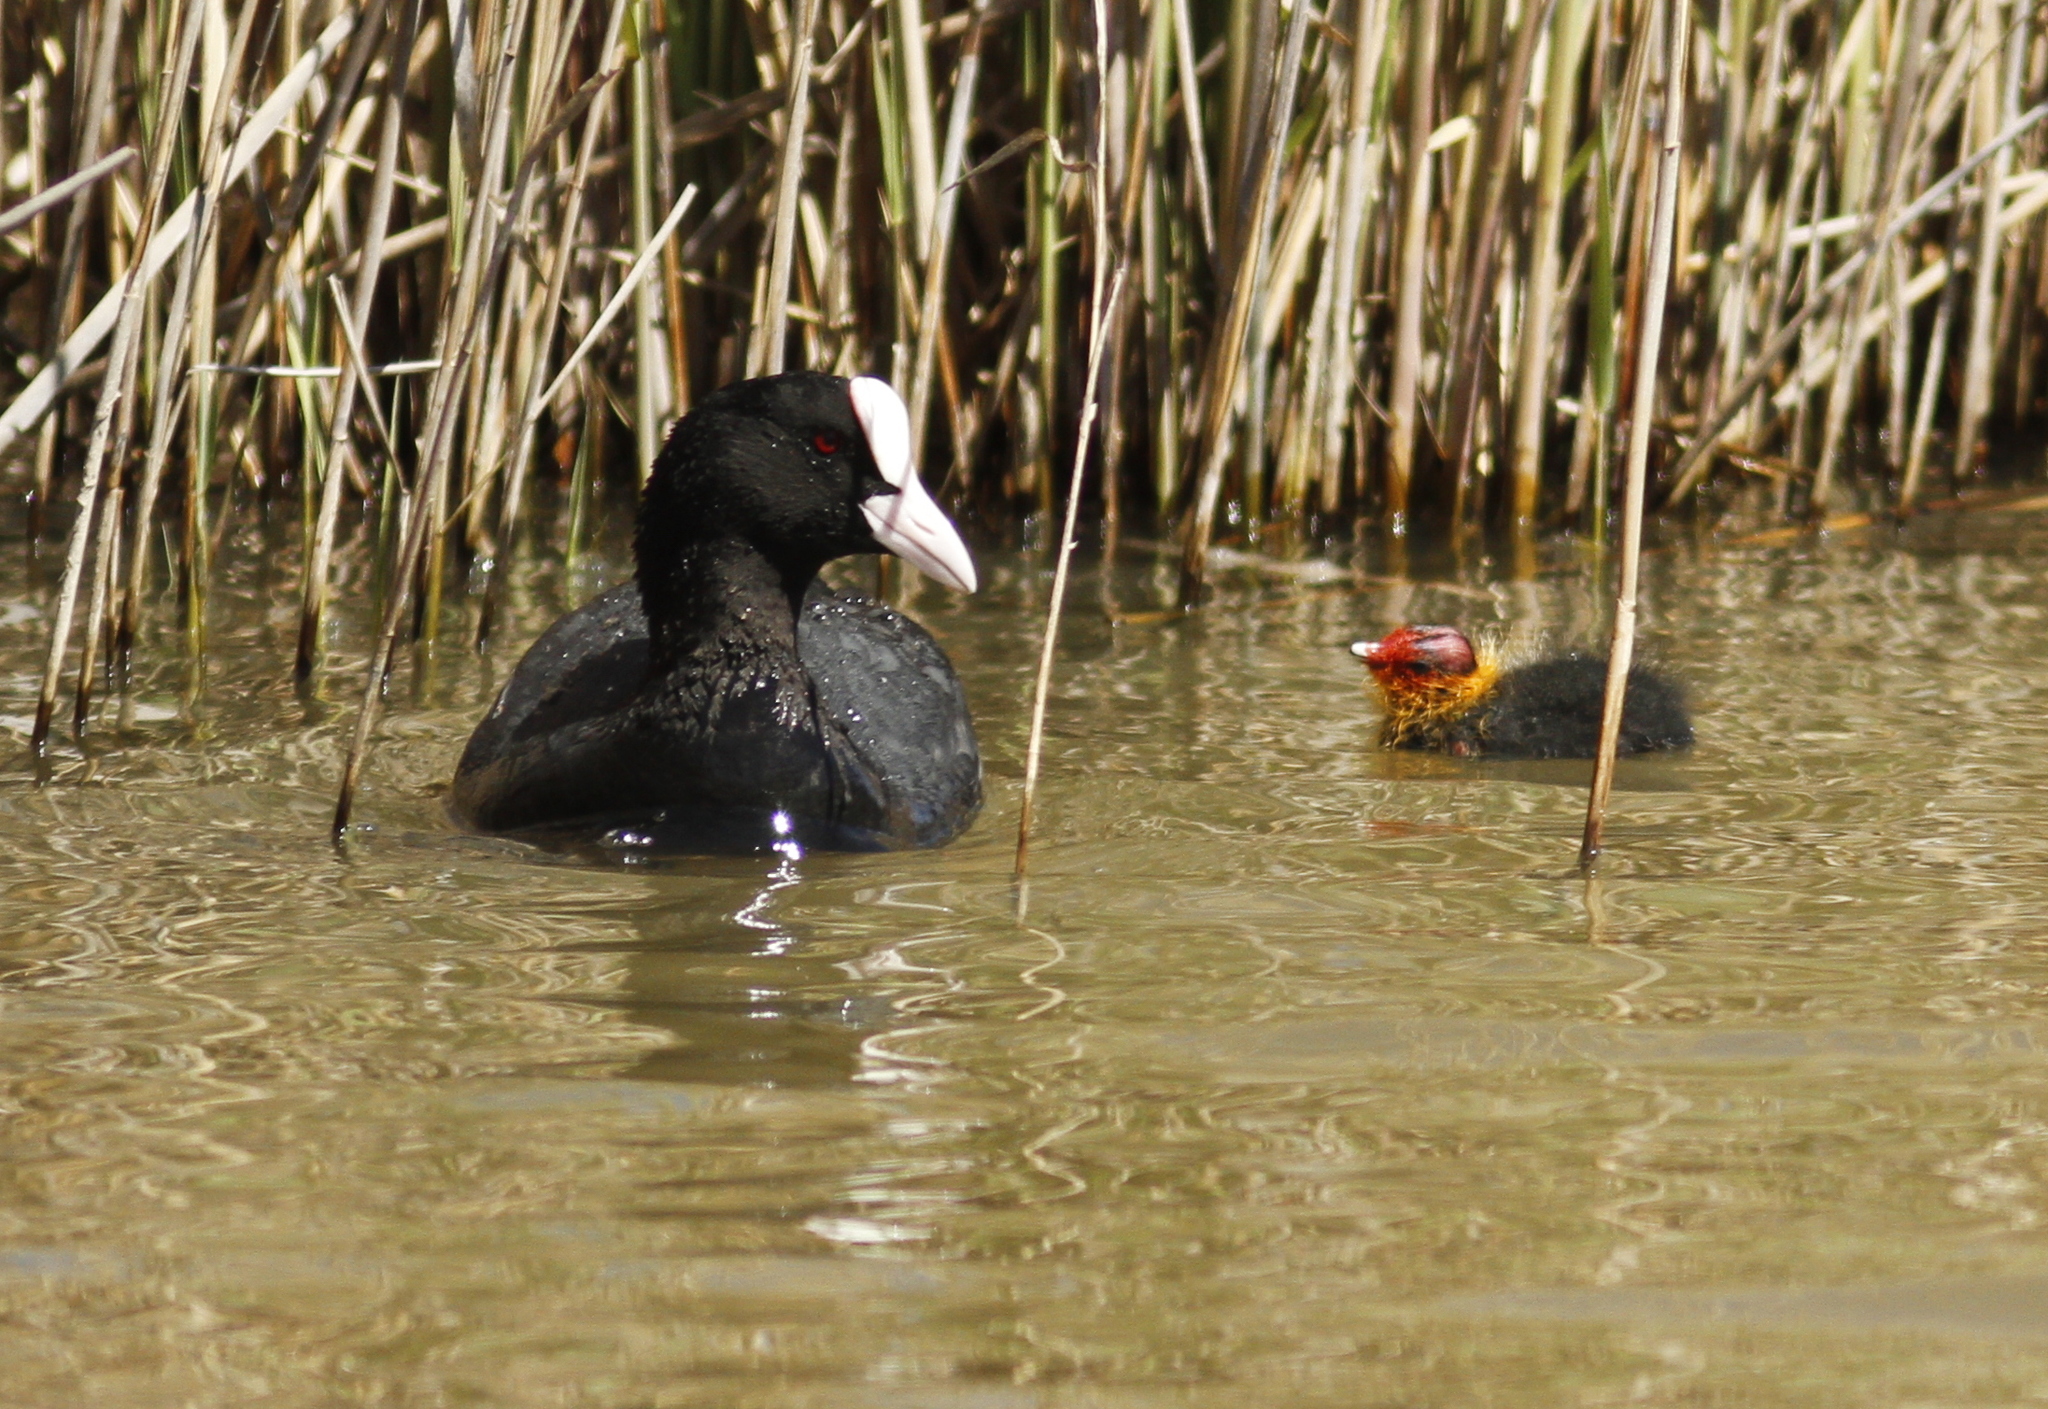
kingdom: Animalia
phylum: Chordata
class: Aves
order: Gruiformes
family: Rallidae
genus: Fulica
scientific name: Fulica atra
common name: Eurasian coot
